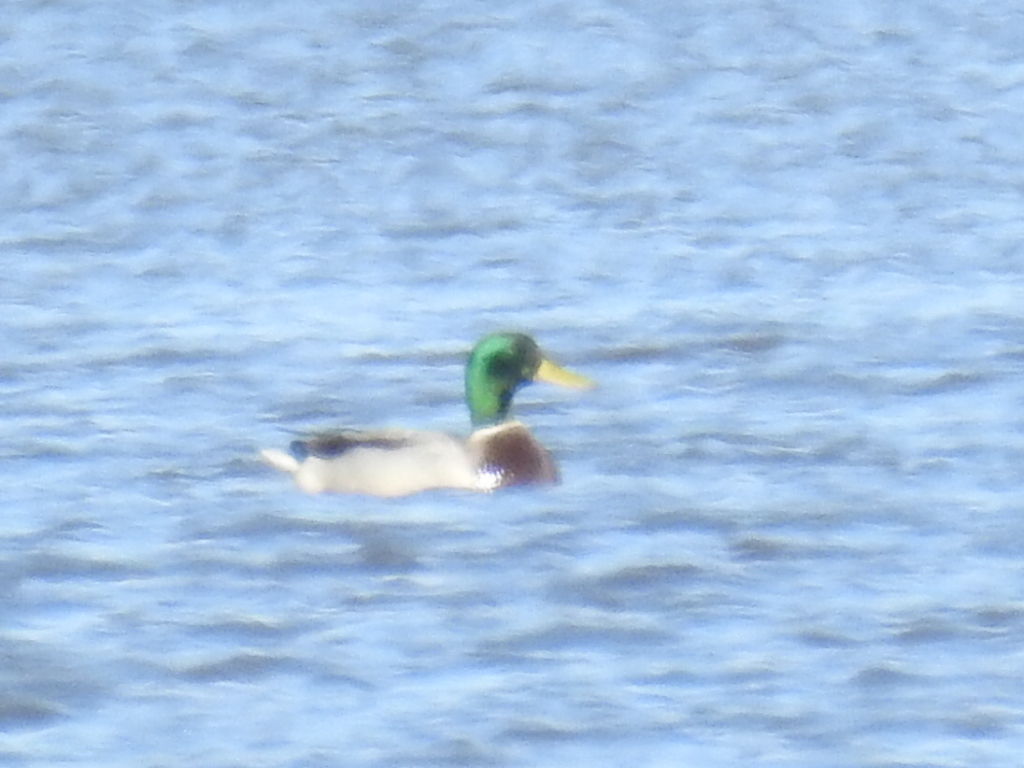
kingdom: Animalia
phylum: Chordata
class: Aves
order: Anseriformes
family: Anatidae
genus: Anas
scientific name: Anas platyrhynchos
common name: Mallard
